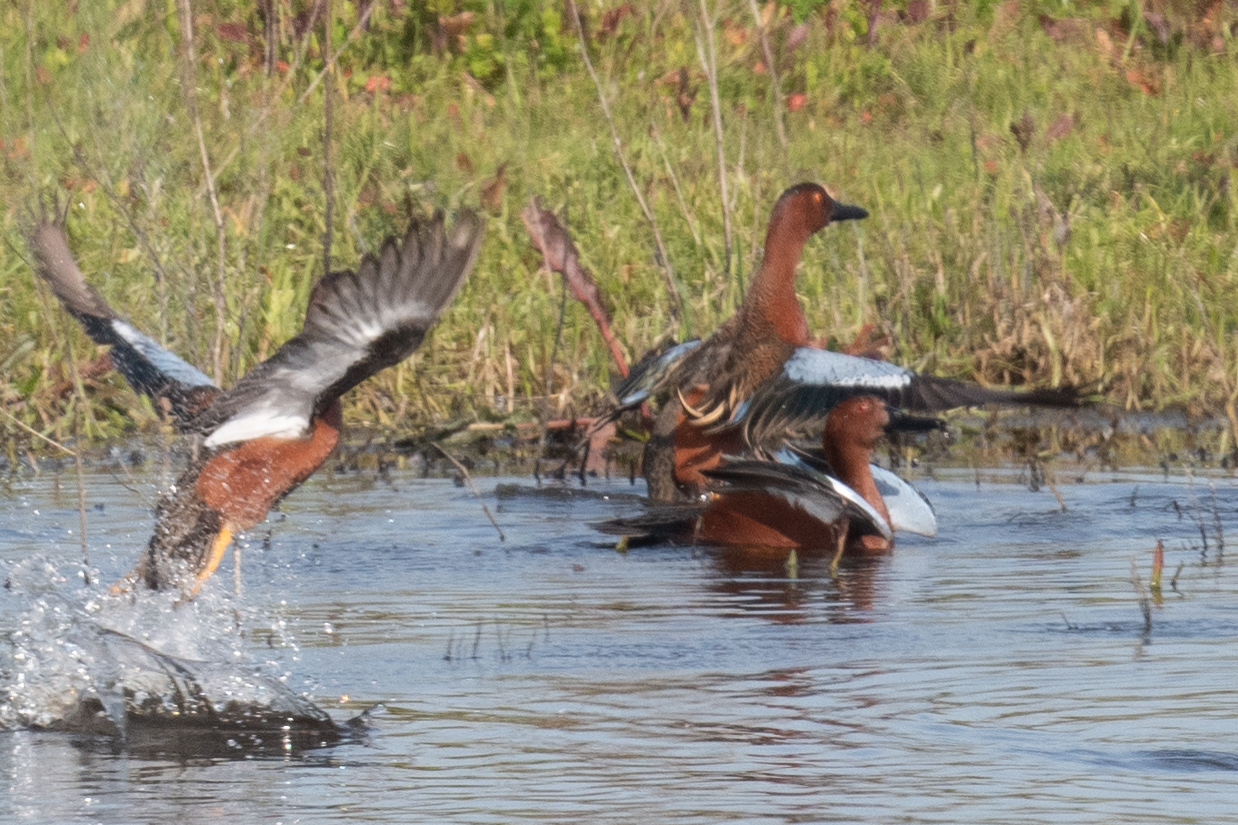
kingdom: Animalia
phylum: Chordata
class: Aves
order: Anseriformes
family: Anatidae
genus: Spatula
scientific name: Spatula cyanoptera
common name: Cinnamon teal
